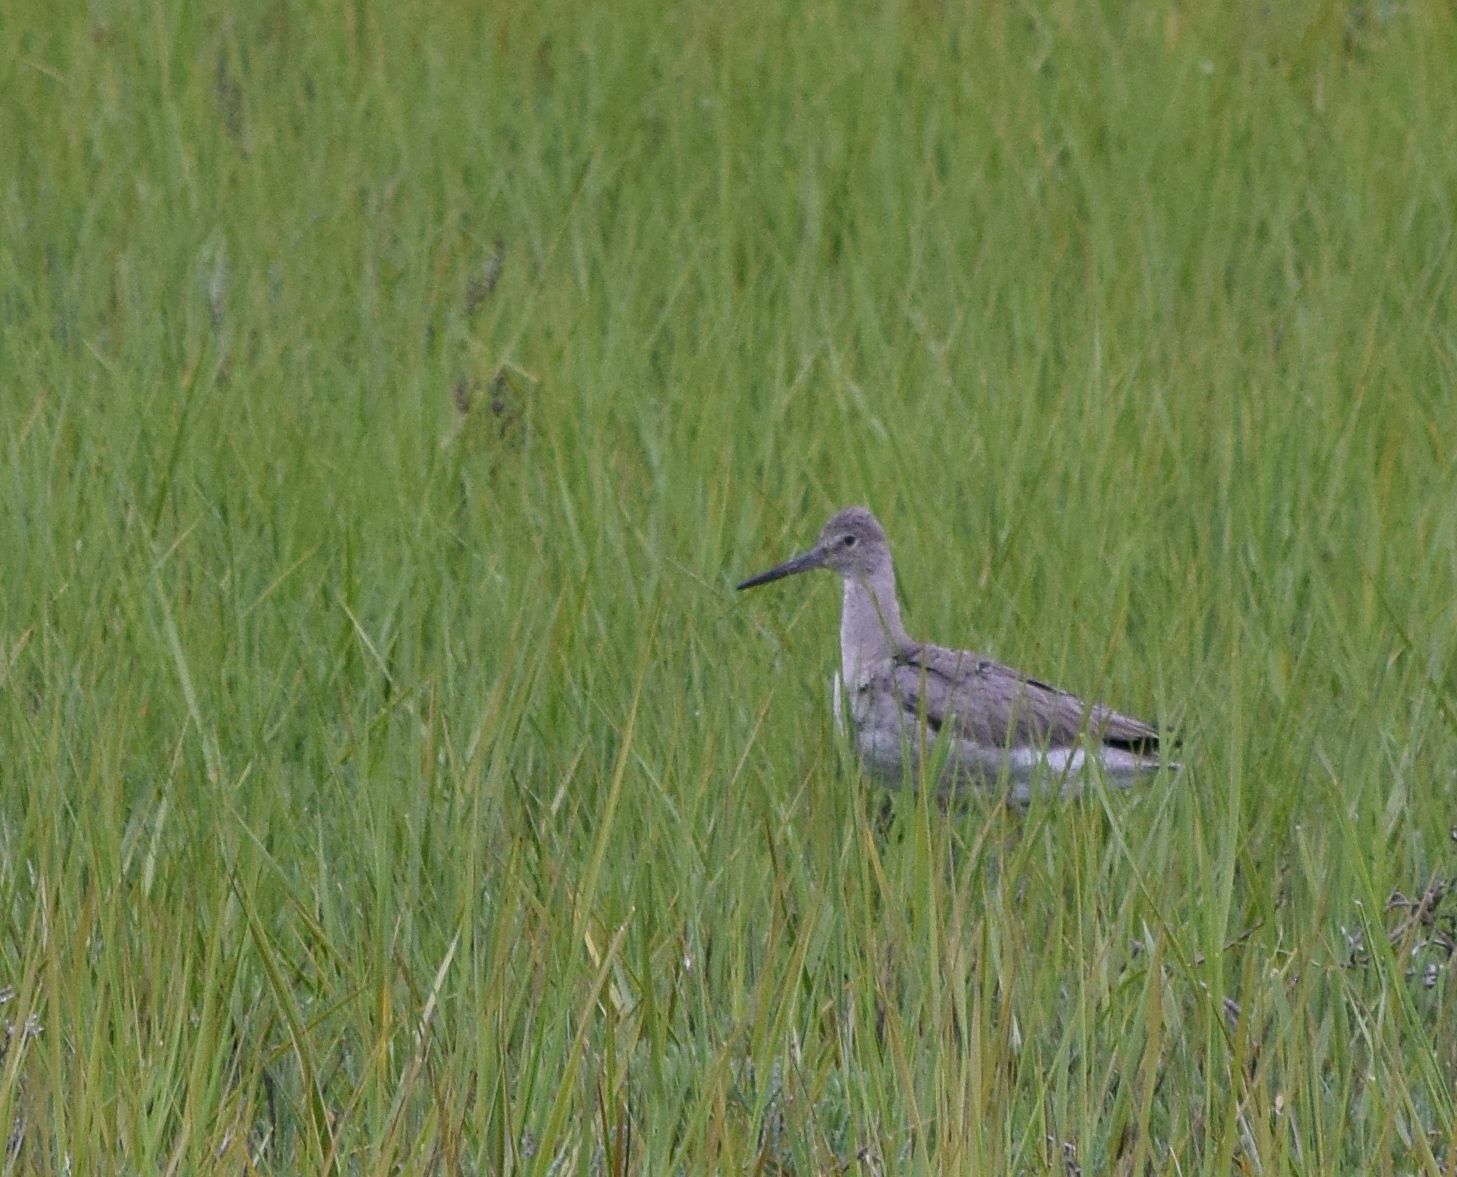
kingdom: Animalia
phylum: Chordata
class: Aves
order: Charadriiformes
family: Scolopacidae
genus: Tringa
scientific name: Tringa semipalmata
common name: Willet
